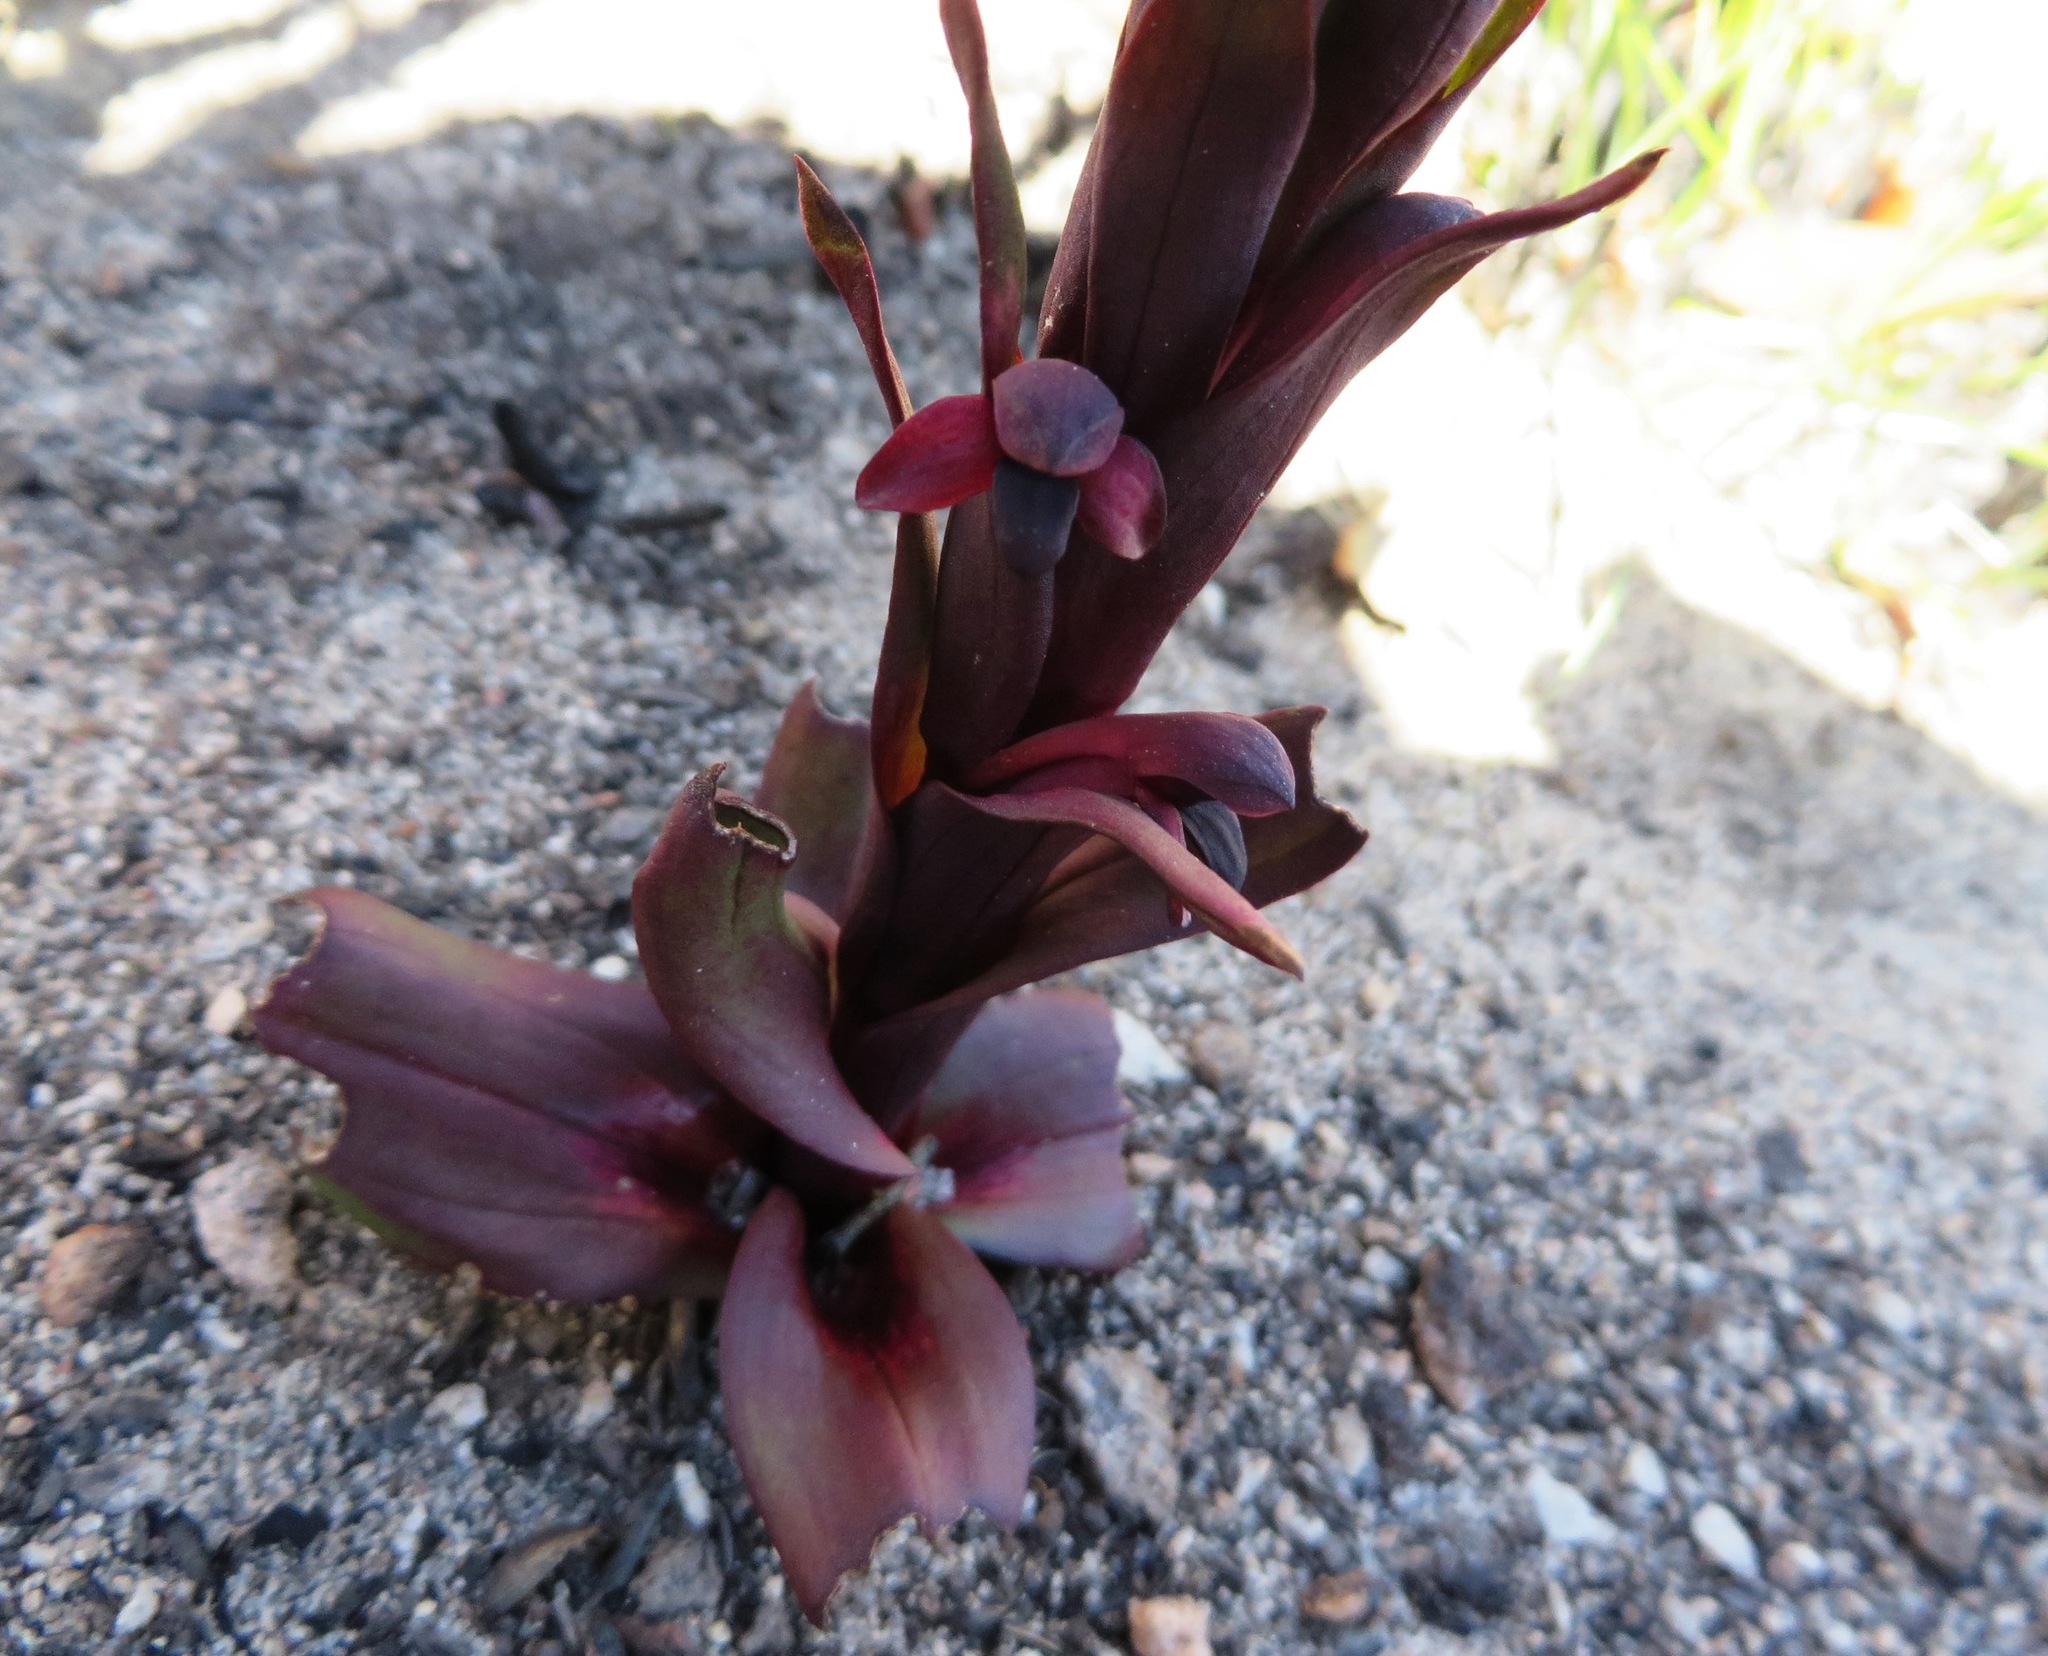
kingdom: Plantae
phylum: Tracheophyta
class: Liliopsida
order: Asparagales
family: Orchidaceae
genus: Disa
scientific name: Disa atrorubens
